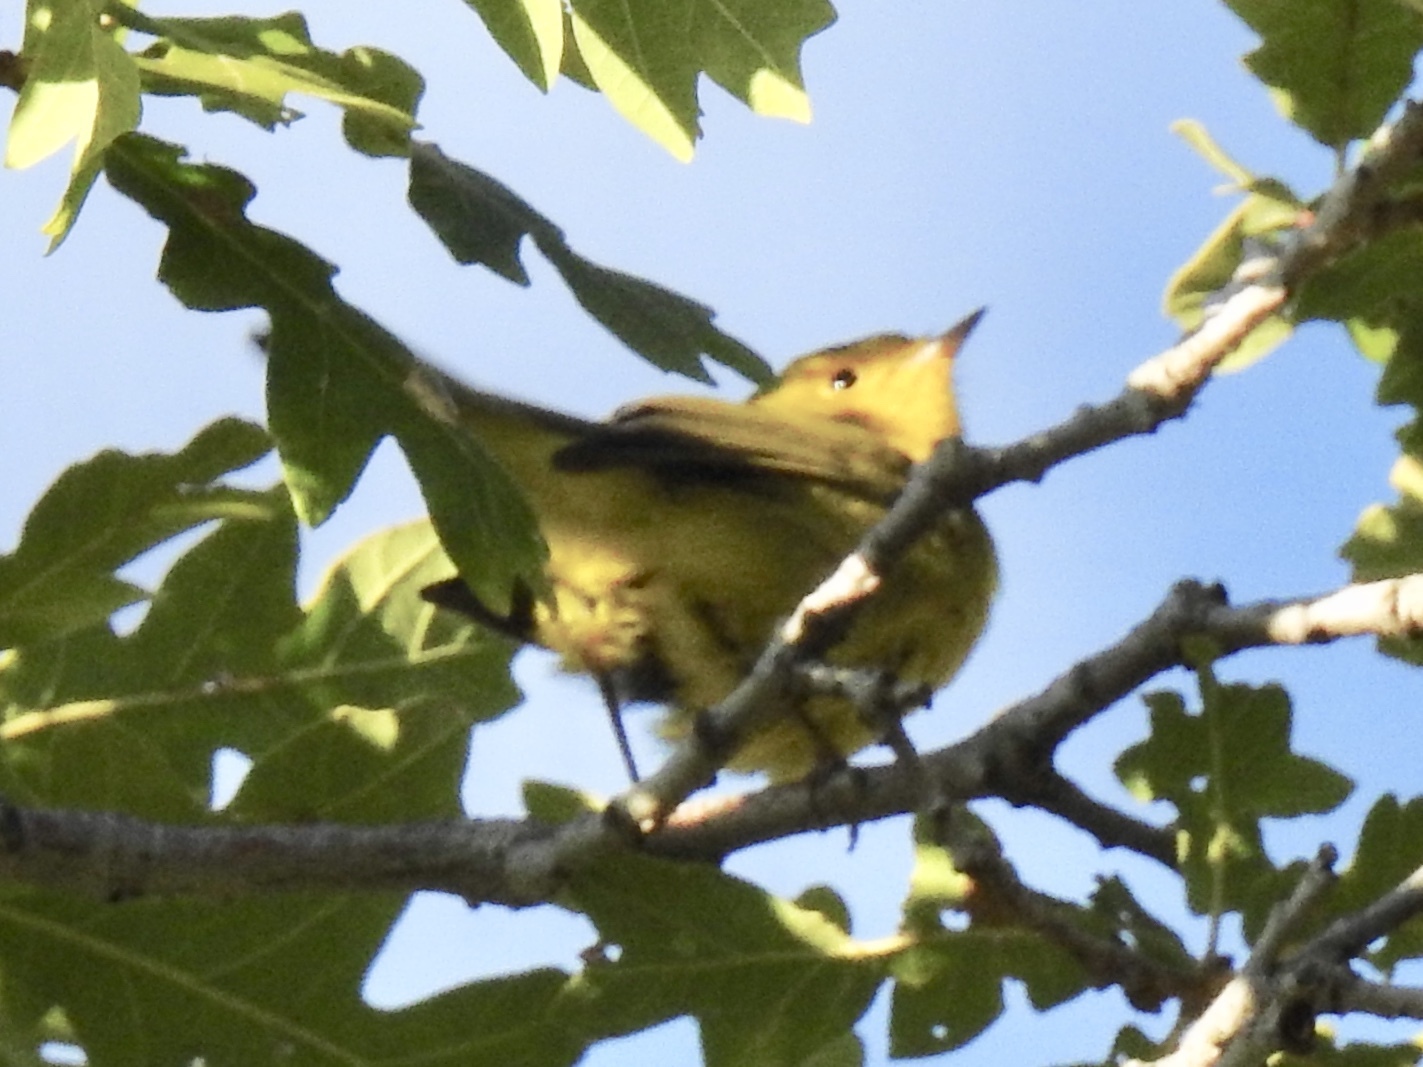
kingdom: Animalia
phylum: Chordata
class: Aves
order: Passeriformes
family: Parulidae
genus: Cardellina
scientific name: Cardellina pusilla
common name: Wilson's warbler
